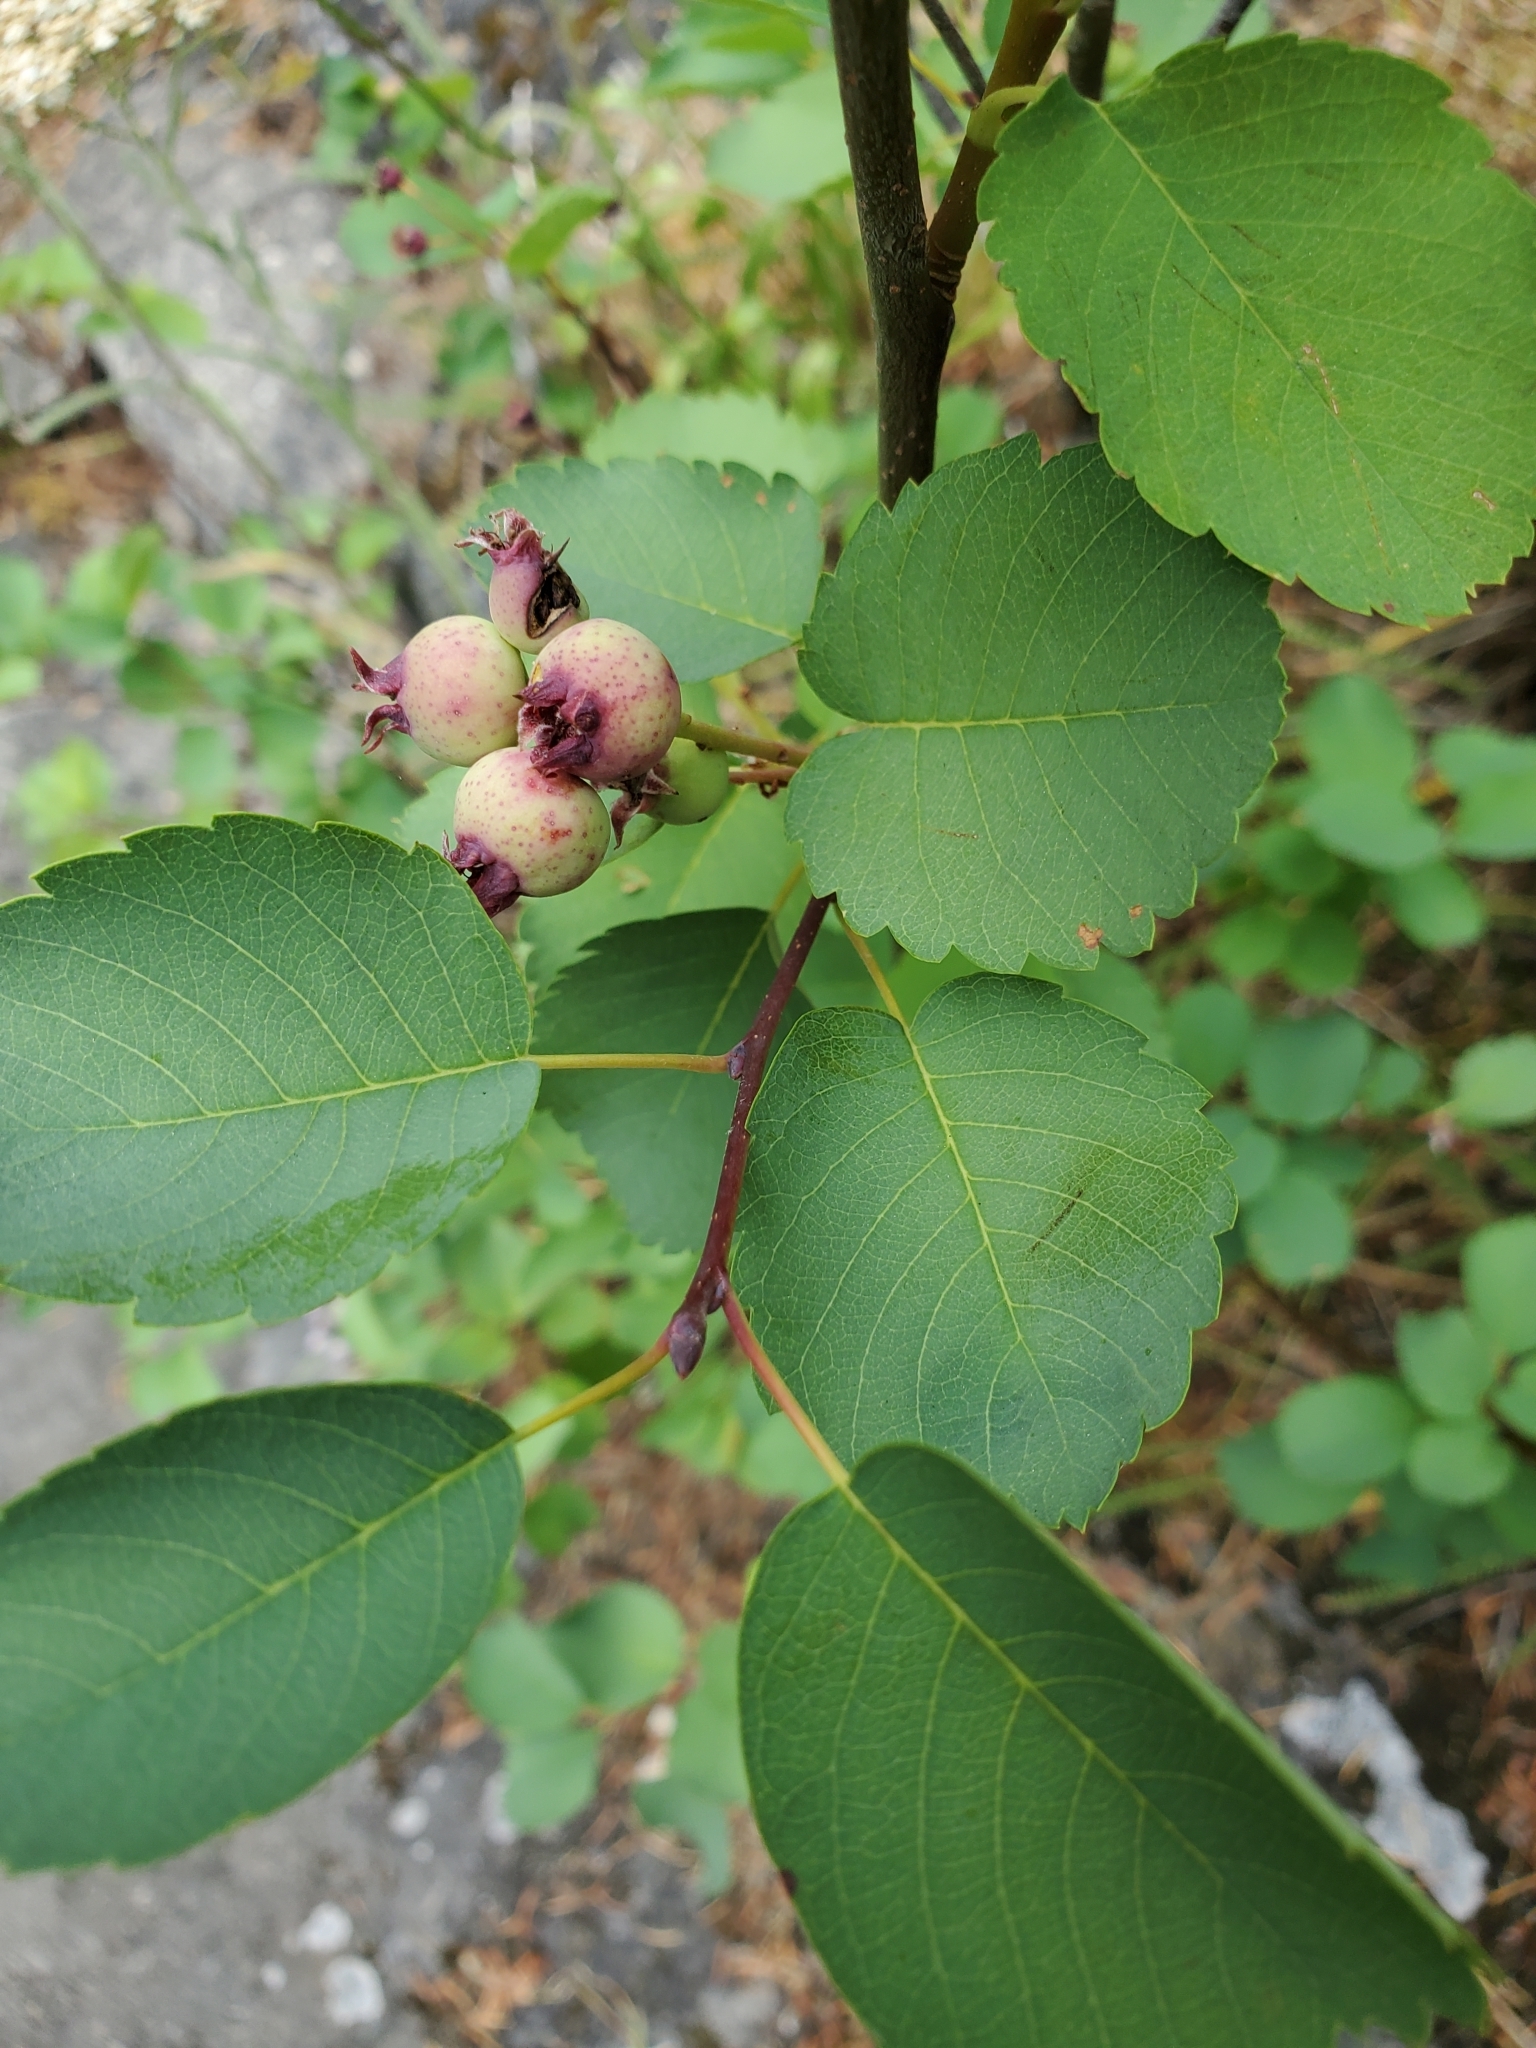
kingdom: Plantae
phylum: Tracheophyta
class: Magnoliopsida
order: Rosales
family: Rosaceae
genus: Amelanchier
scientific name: Amelanchier alnifolia
